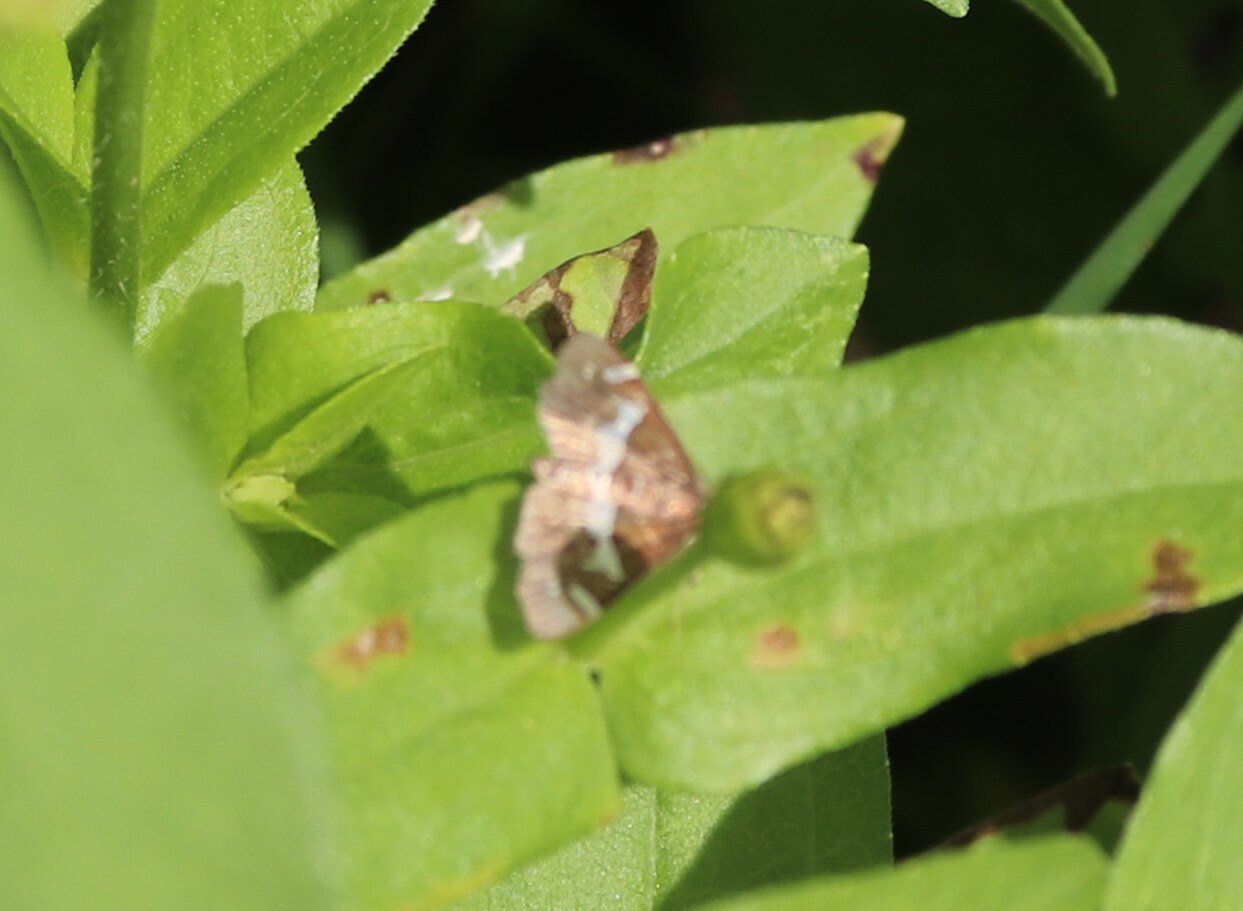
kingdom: Animalia
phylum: Arthropoda
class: Insecta
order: Lepidoptera
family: Crambidae
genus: Spoladea
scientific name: Spoladea recurvalis
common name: Beet webworm moth
